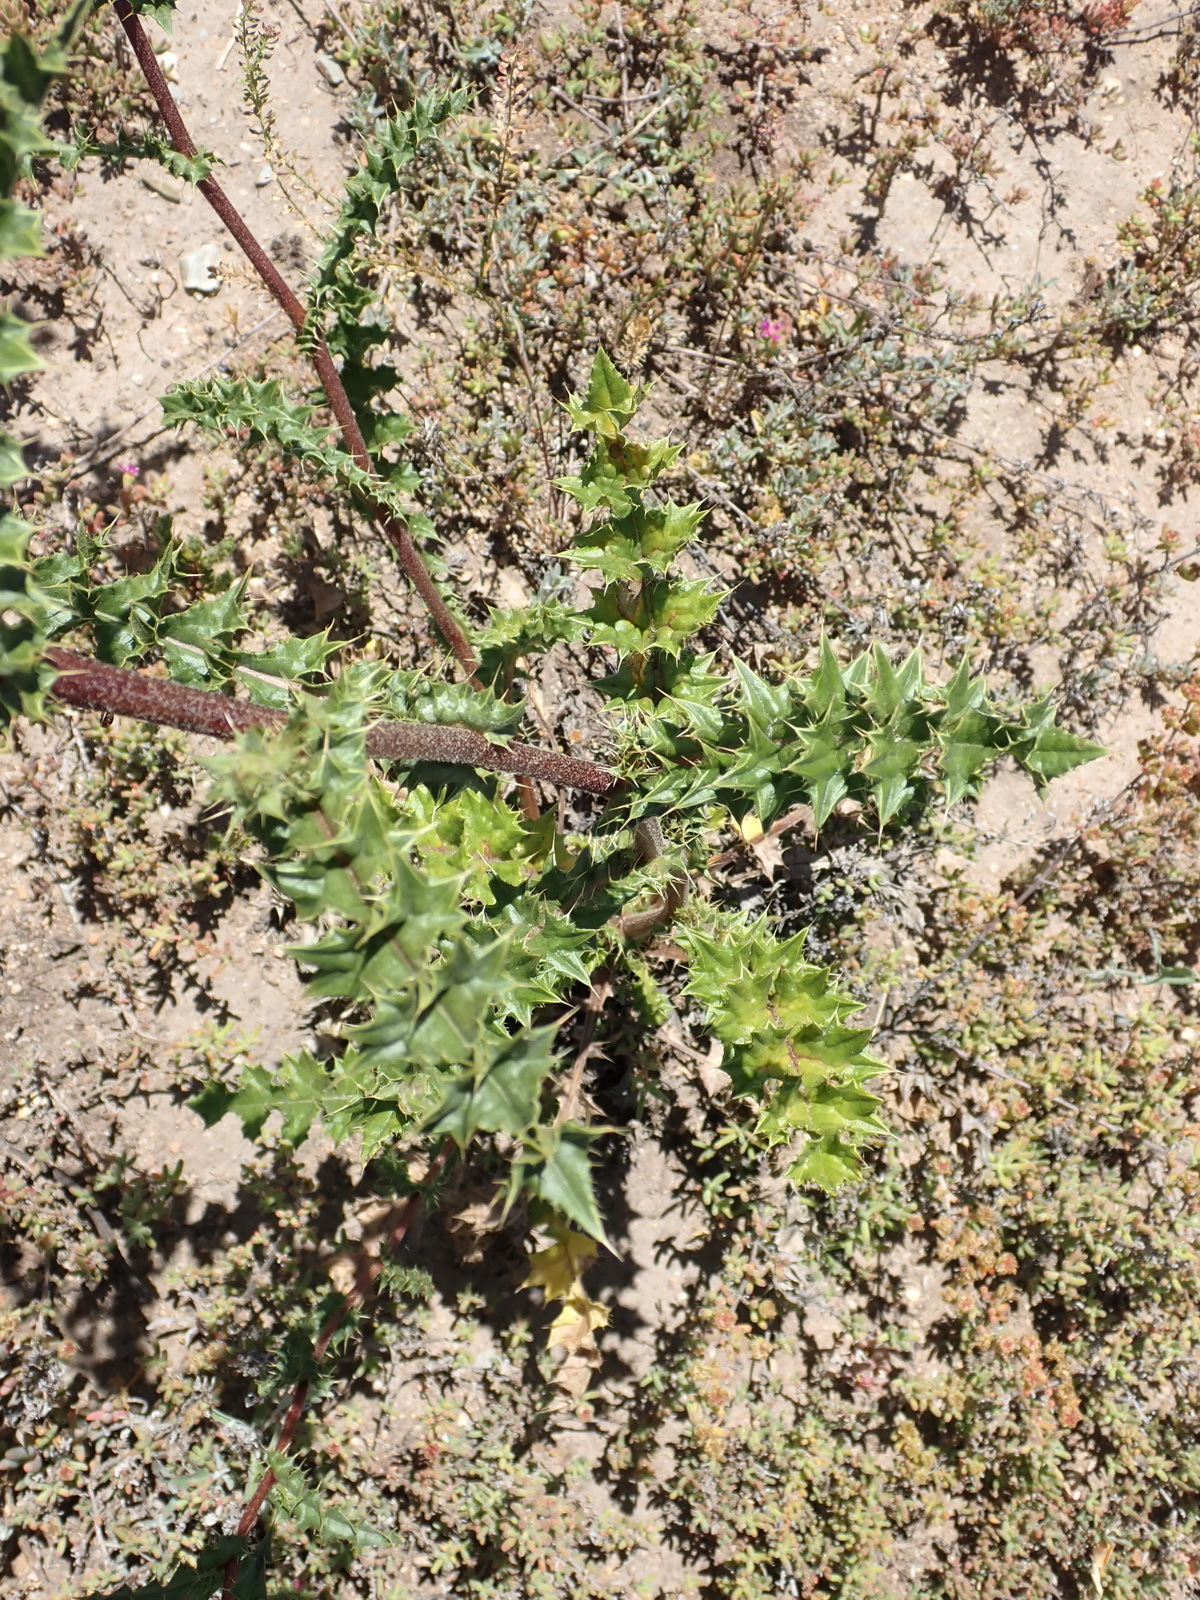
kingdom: Plantae
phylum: Tracheophyta
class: Magnoliopsida
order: Asterales
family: Asteraceae
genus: Berkheya
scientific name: Berkheya onobromoides
